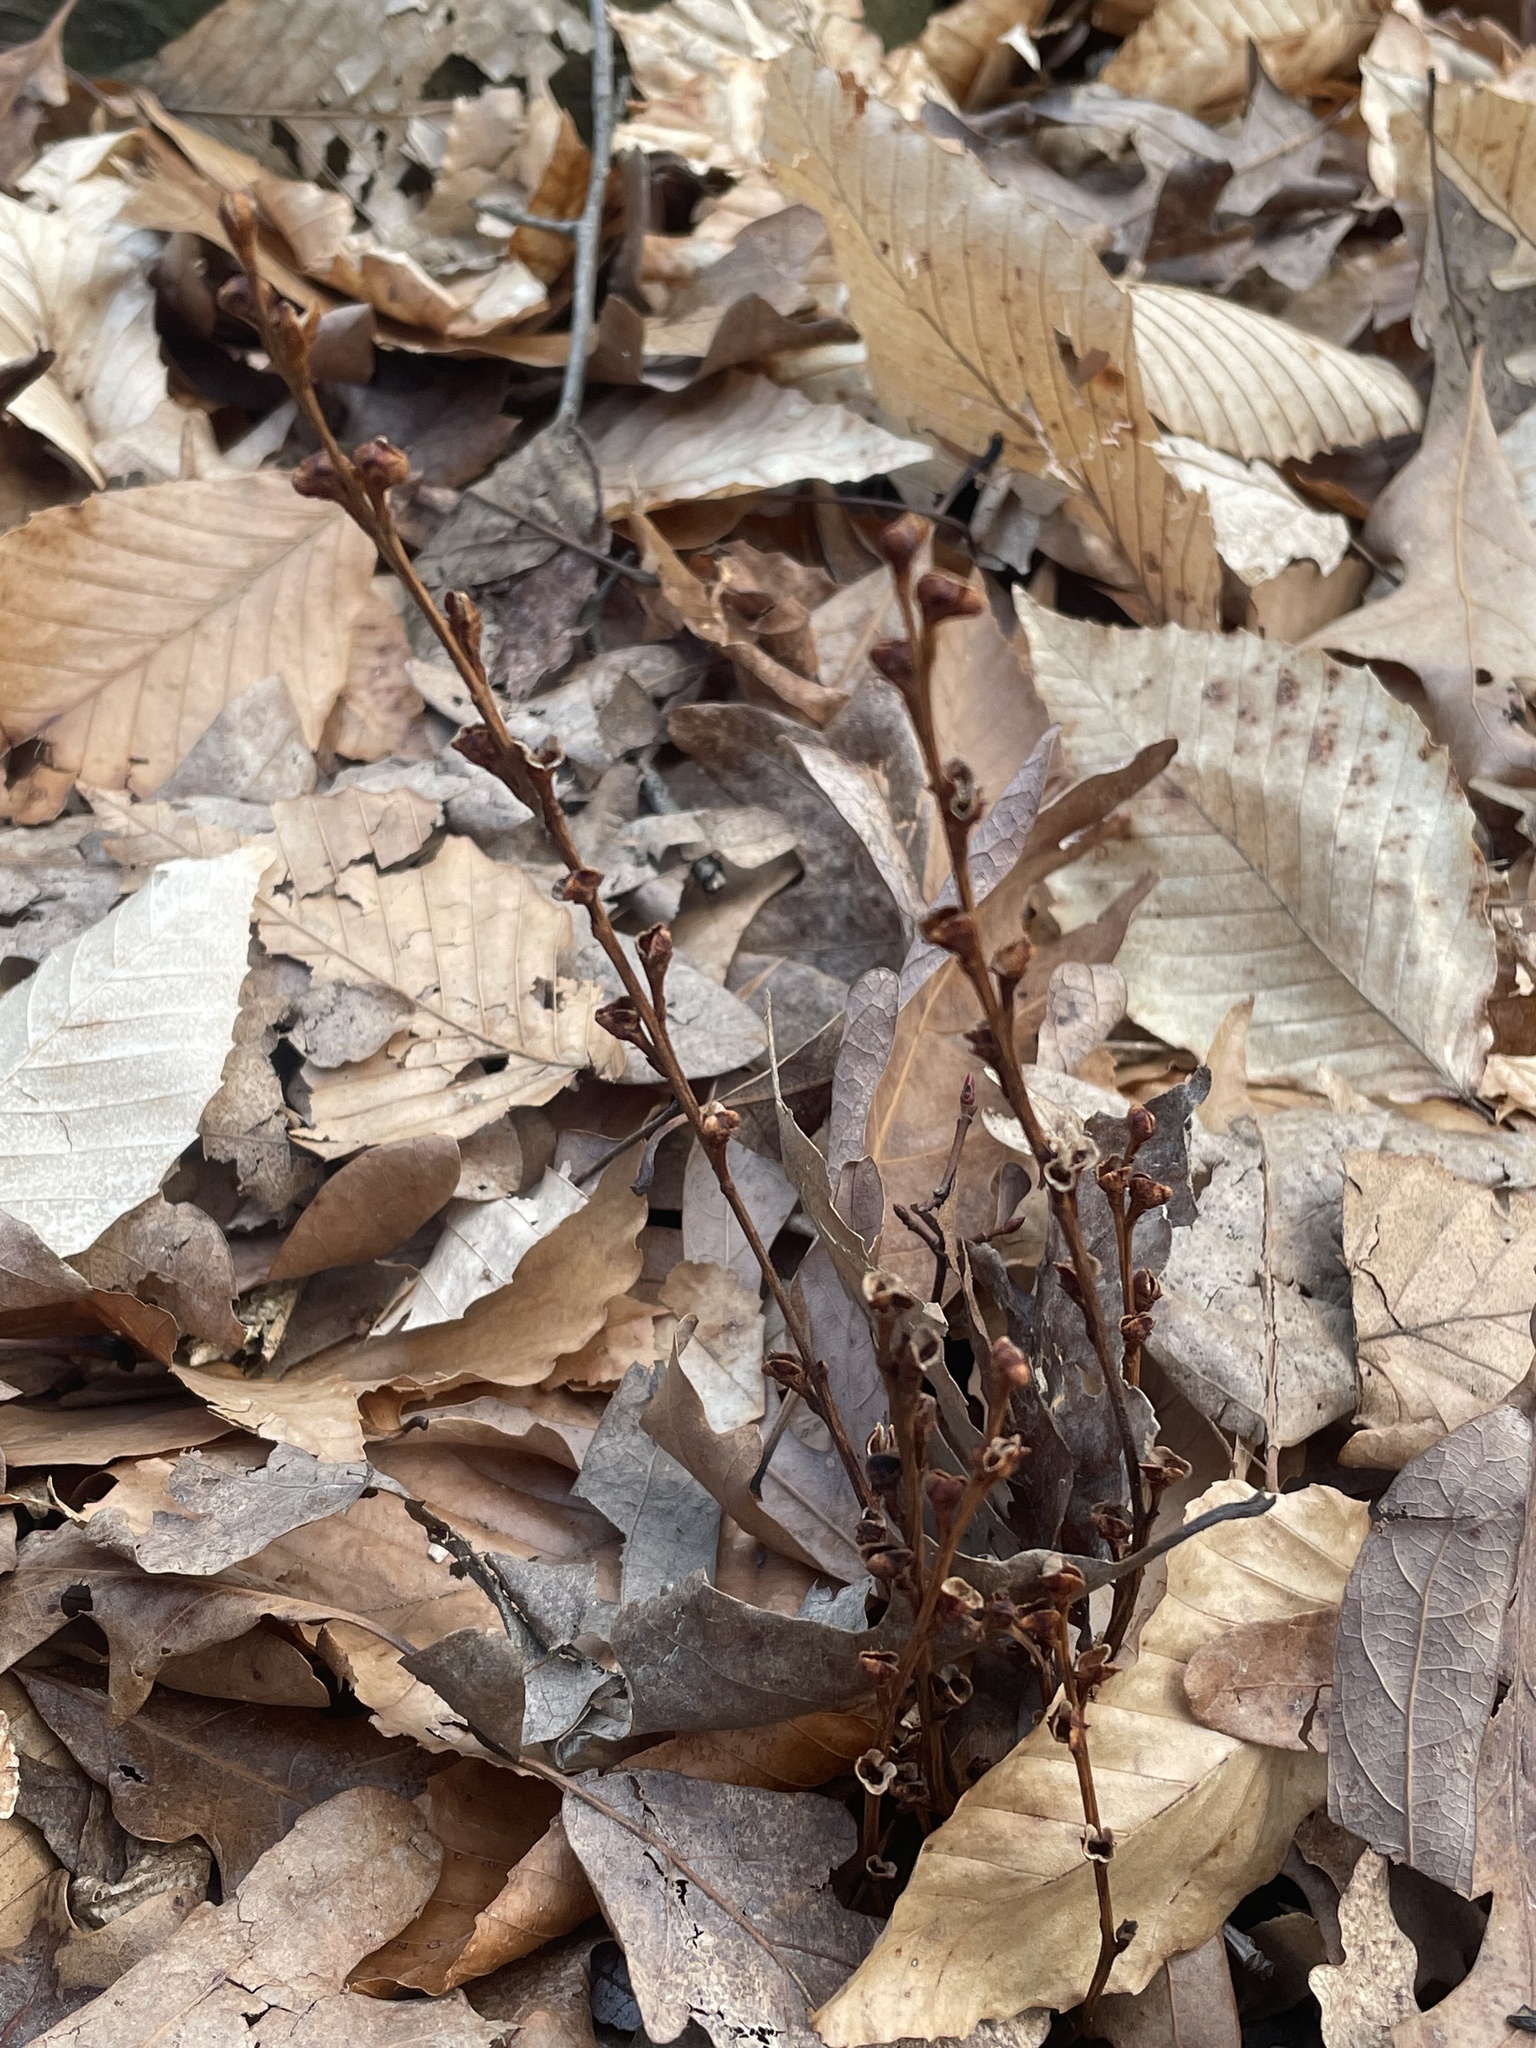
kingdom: Plantae
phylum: Tracheophyta
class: Magnoliopsida
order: Lamiales
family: Orobanchaceae
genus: Epifagus
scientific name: Epifagus virginiana
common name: Beechdrops
